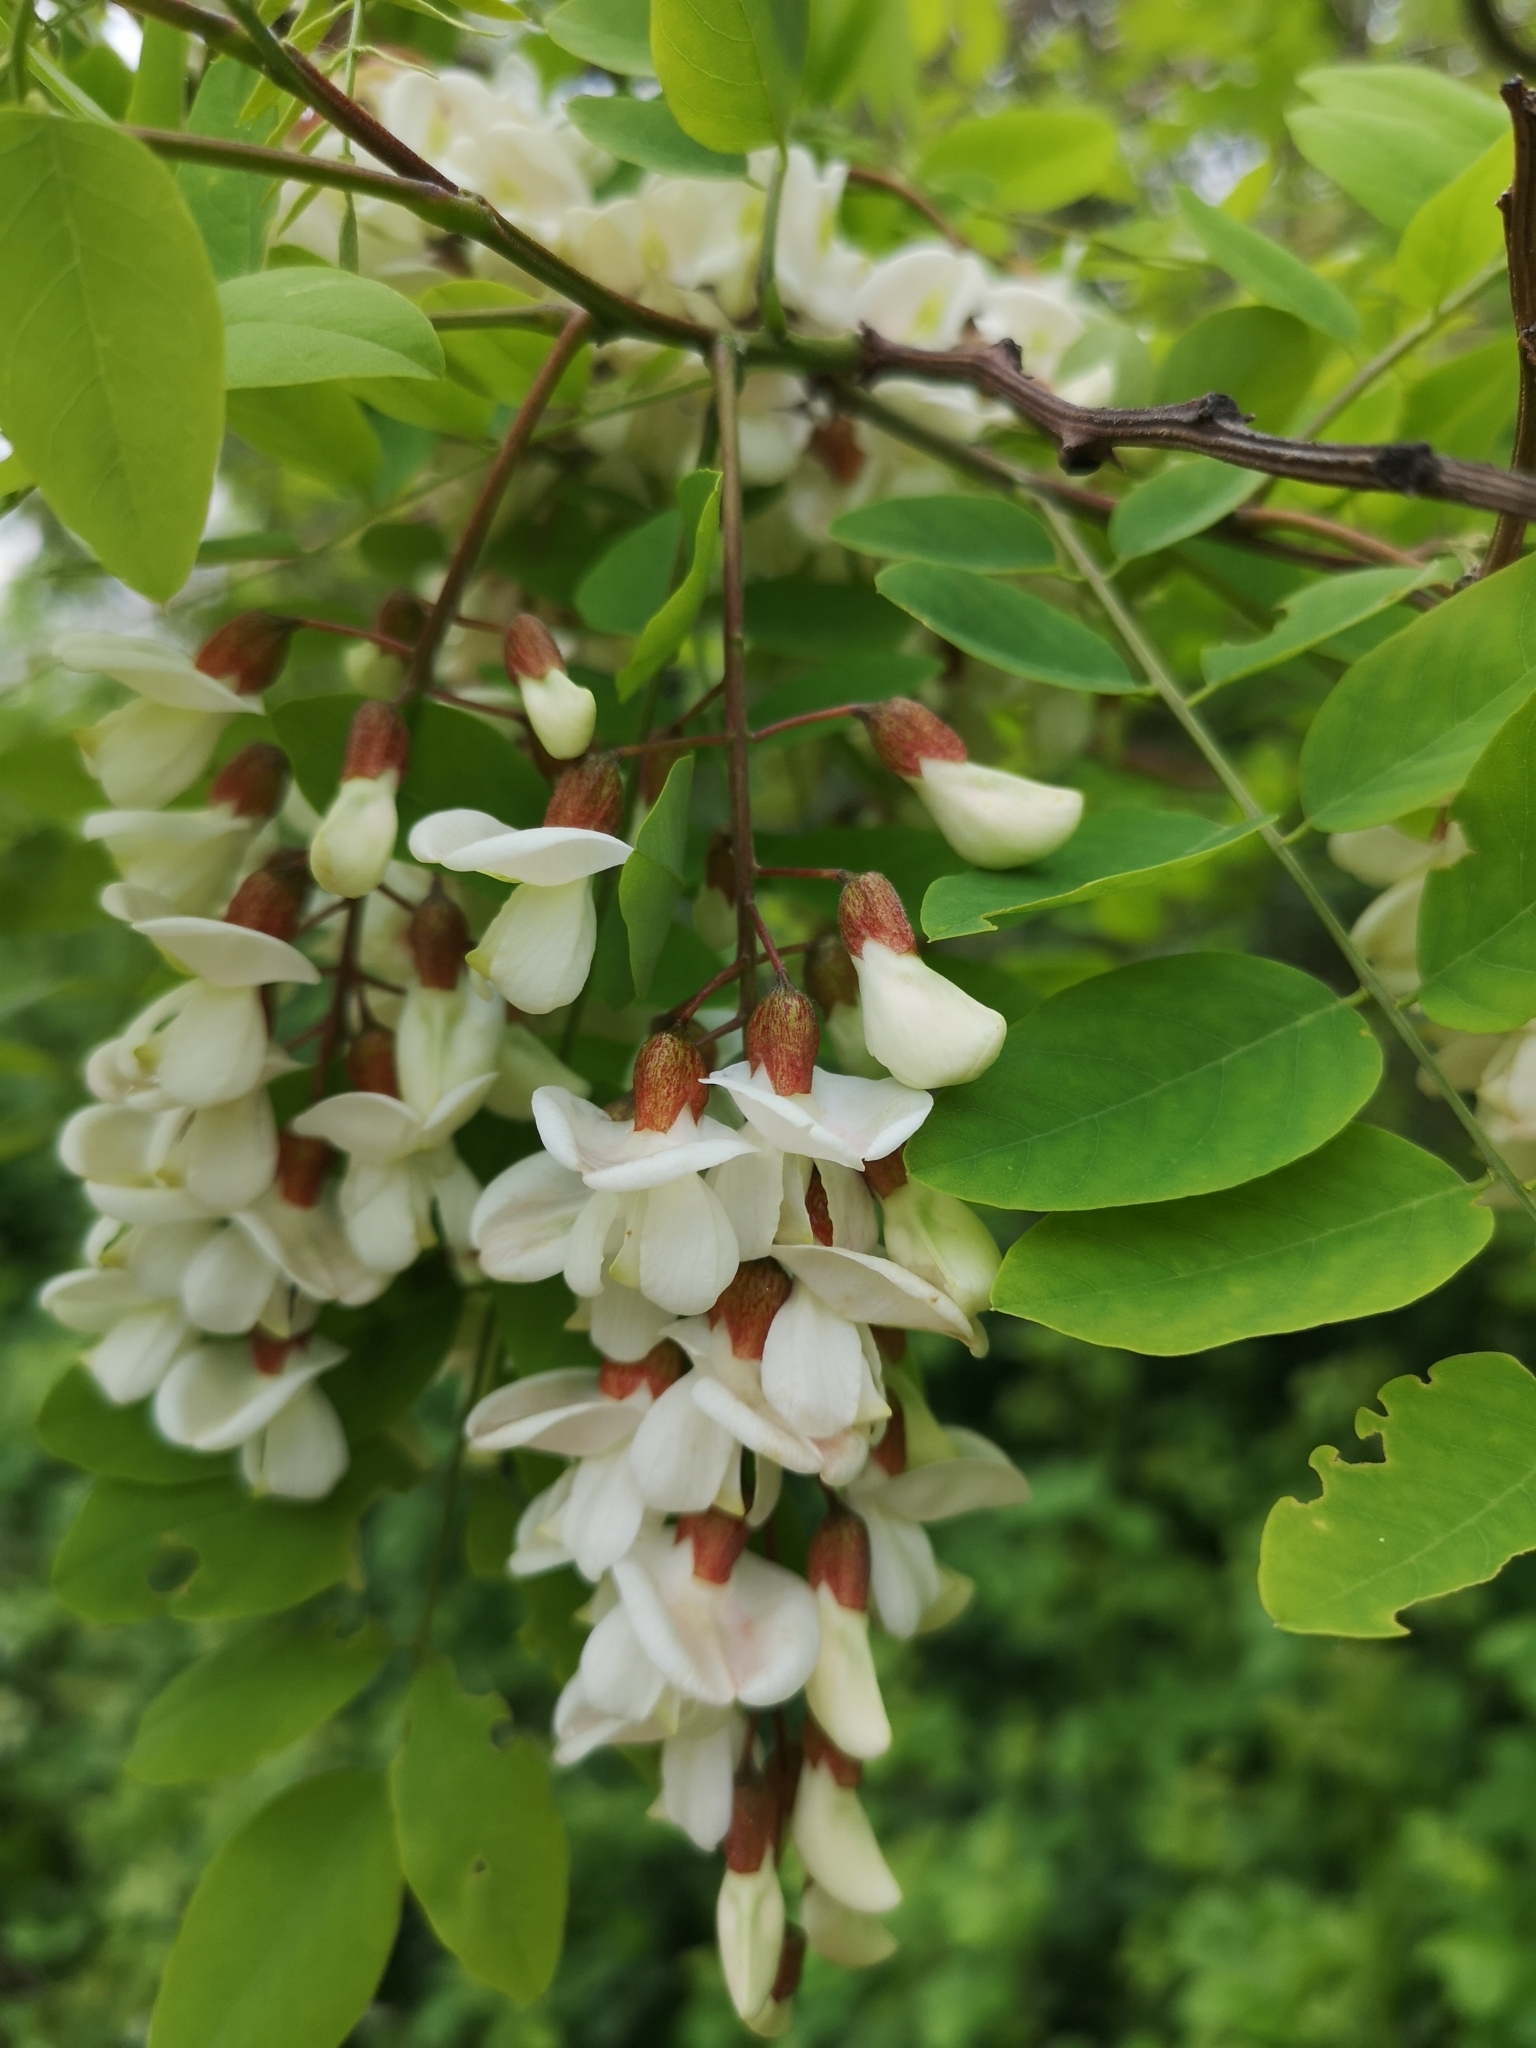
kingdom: Plantae
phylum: Tracheophyta
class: Magnoliopsida
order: Fabales
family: Fabaceae
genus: Robinia
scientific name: Robinia pseudoacacia
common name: Black locust
